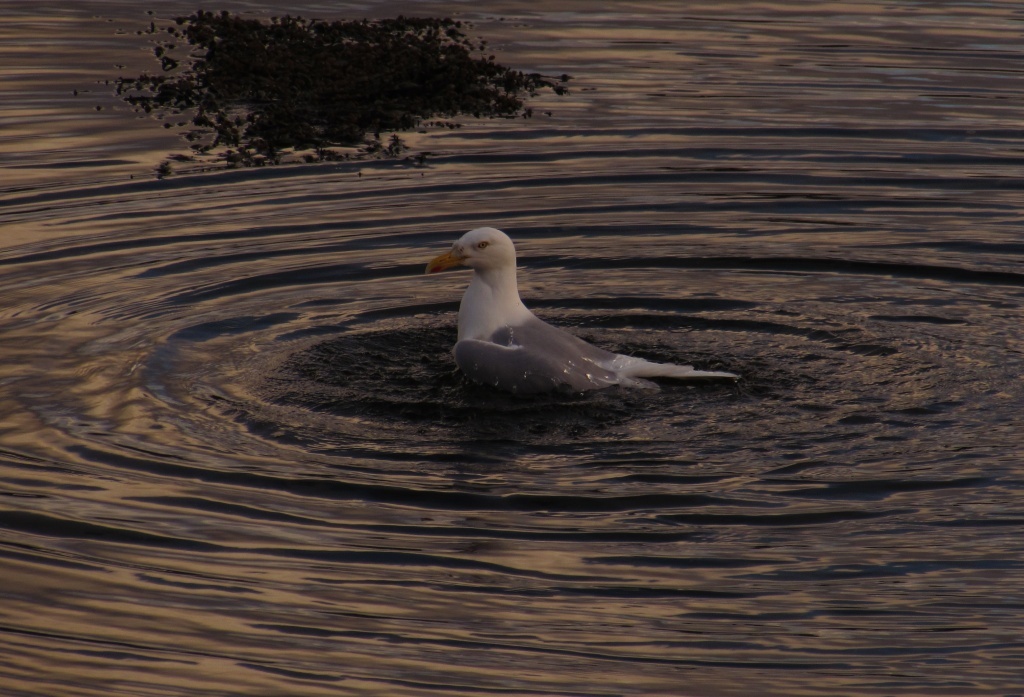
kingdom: Animalia
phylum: Chordata
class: Aves
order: Charadriiformes
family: Laridae
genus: Larus
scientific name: Larus argentatus
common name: Herring gull
